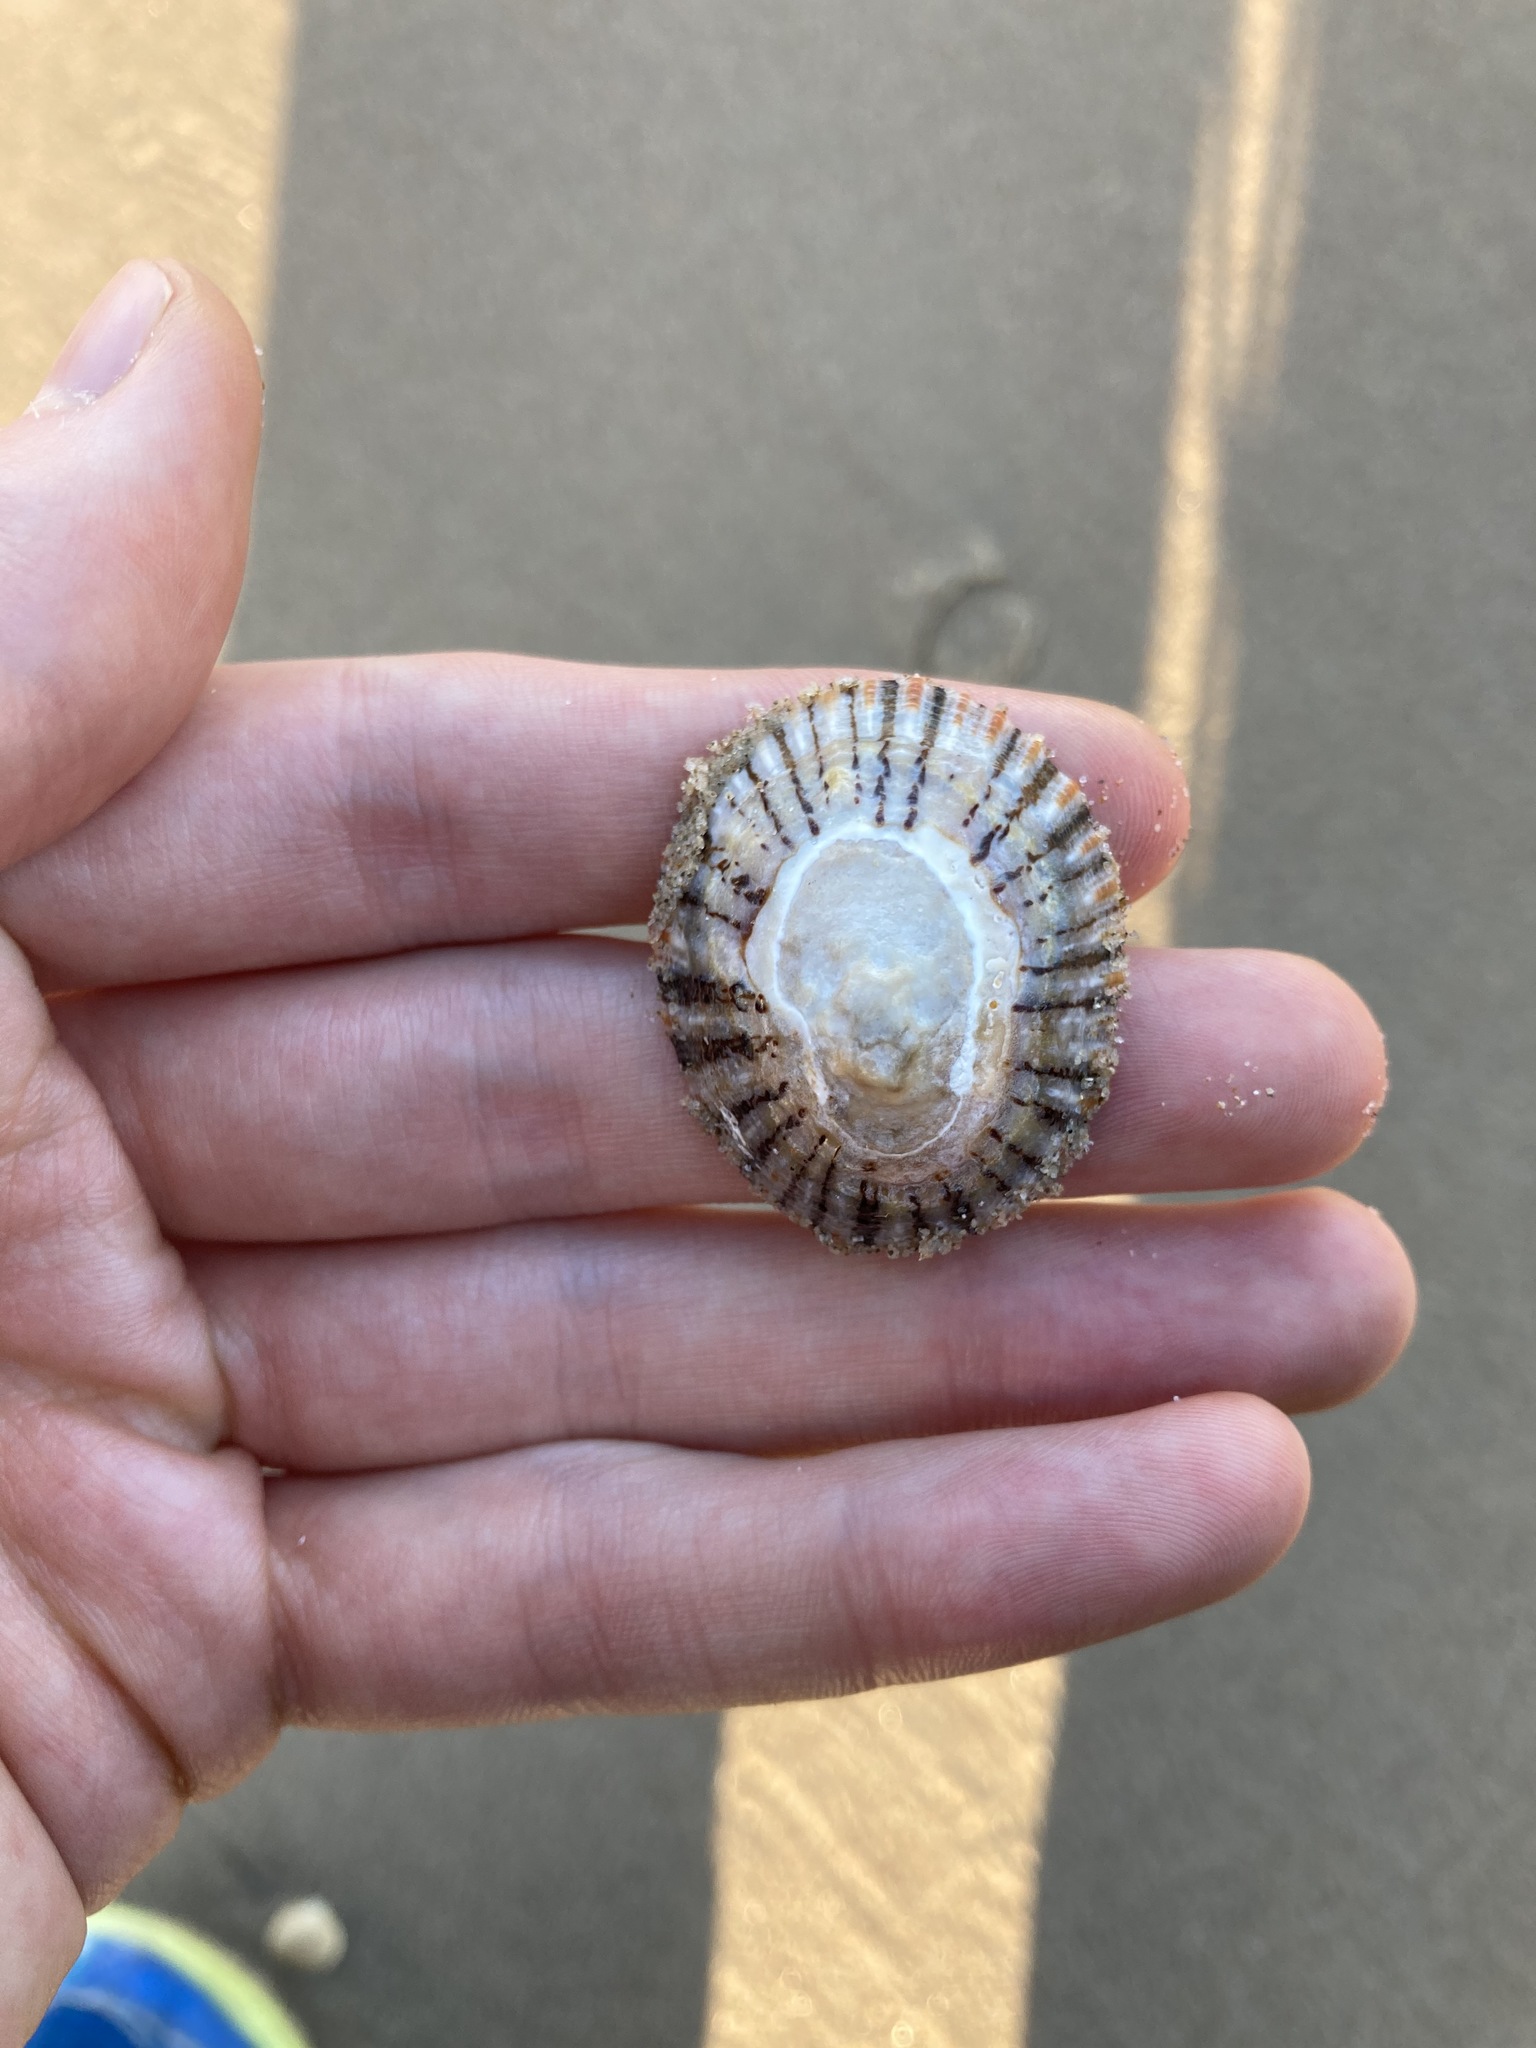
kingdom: Animalia
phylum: Mollusca
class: Gastropoda
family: Nacellidae
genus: Cellana
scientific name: Cellana tramoserica
